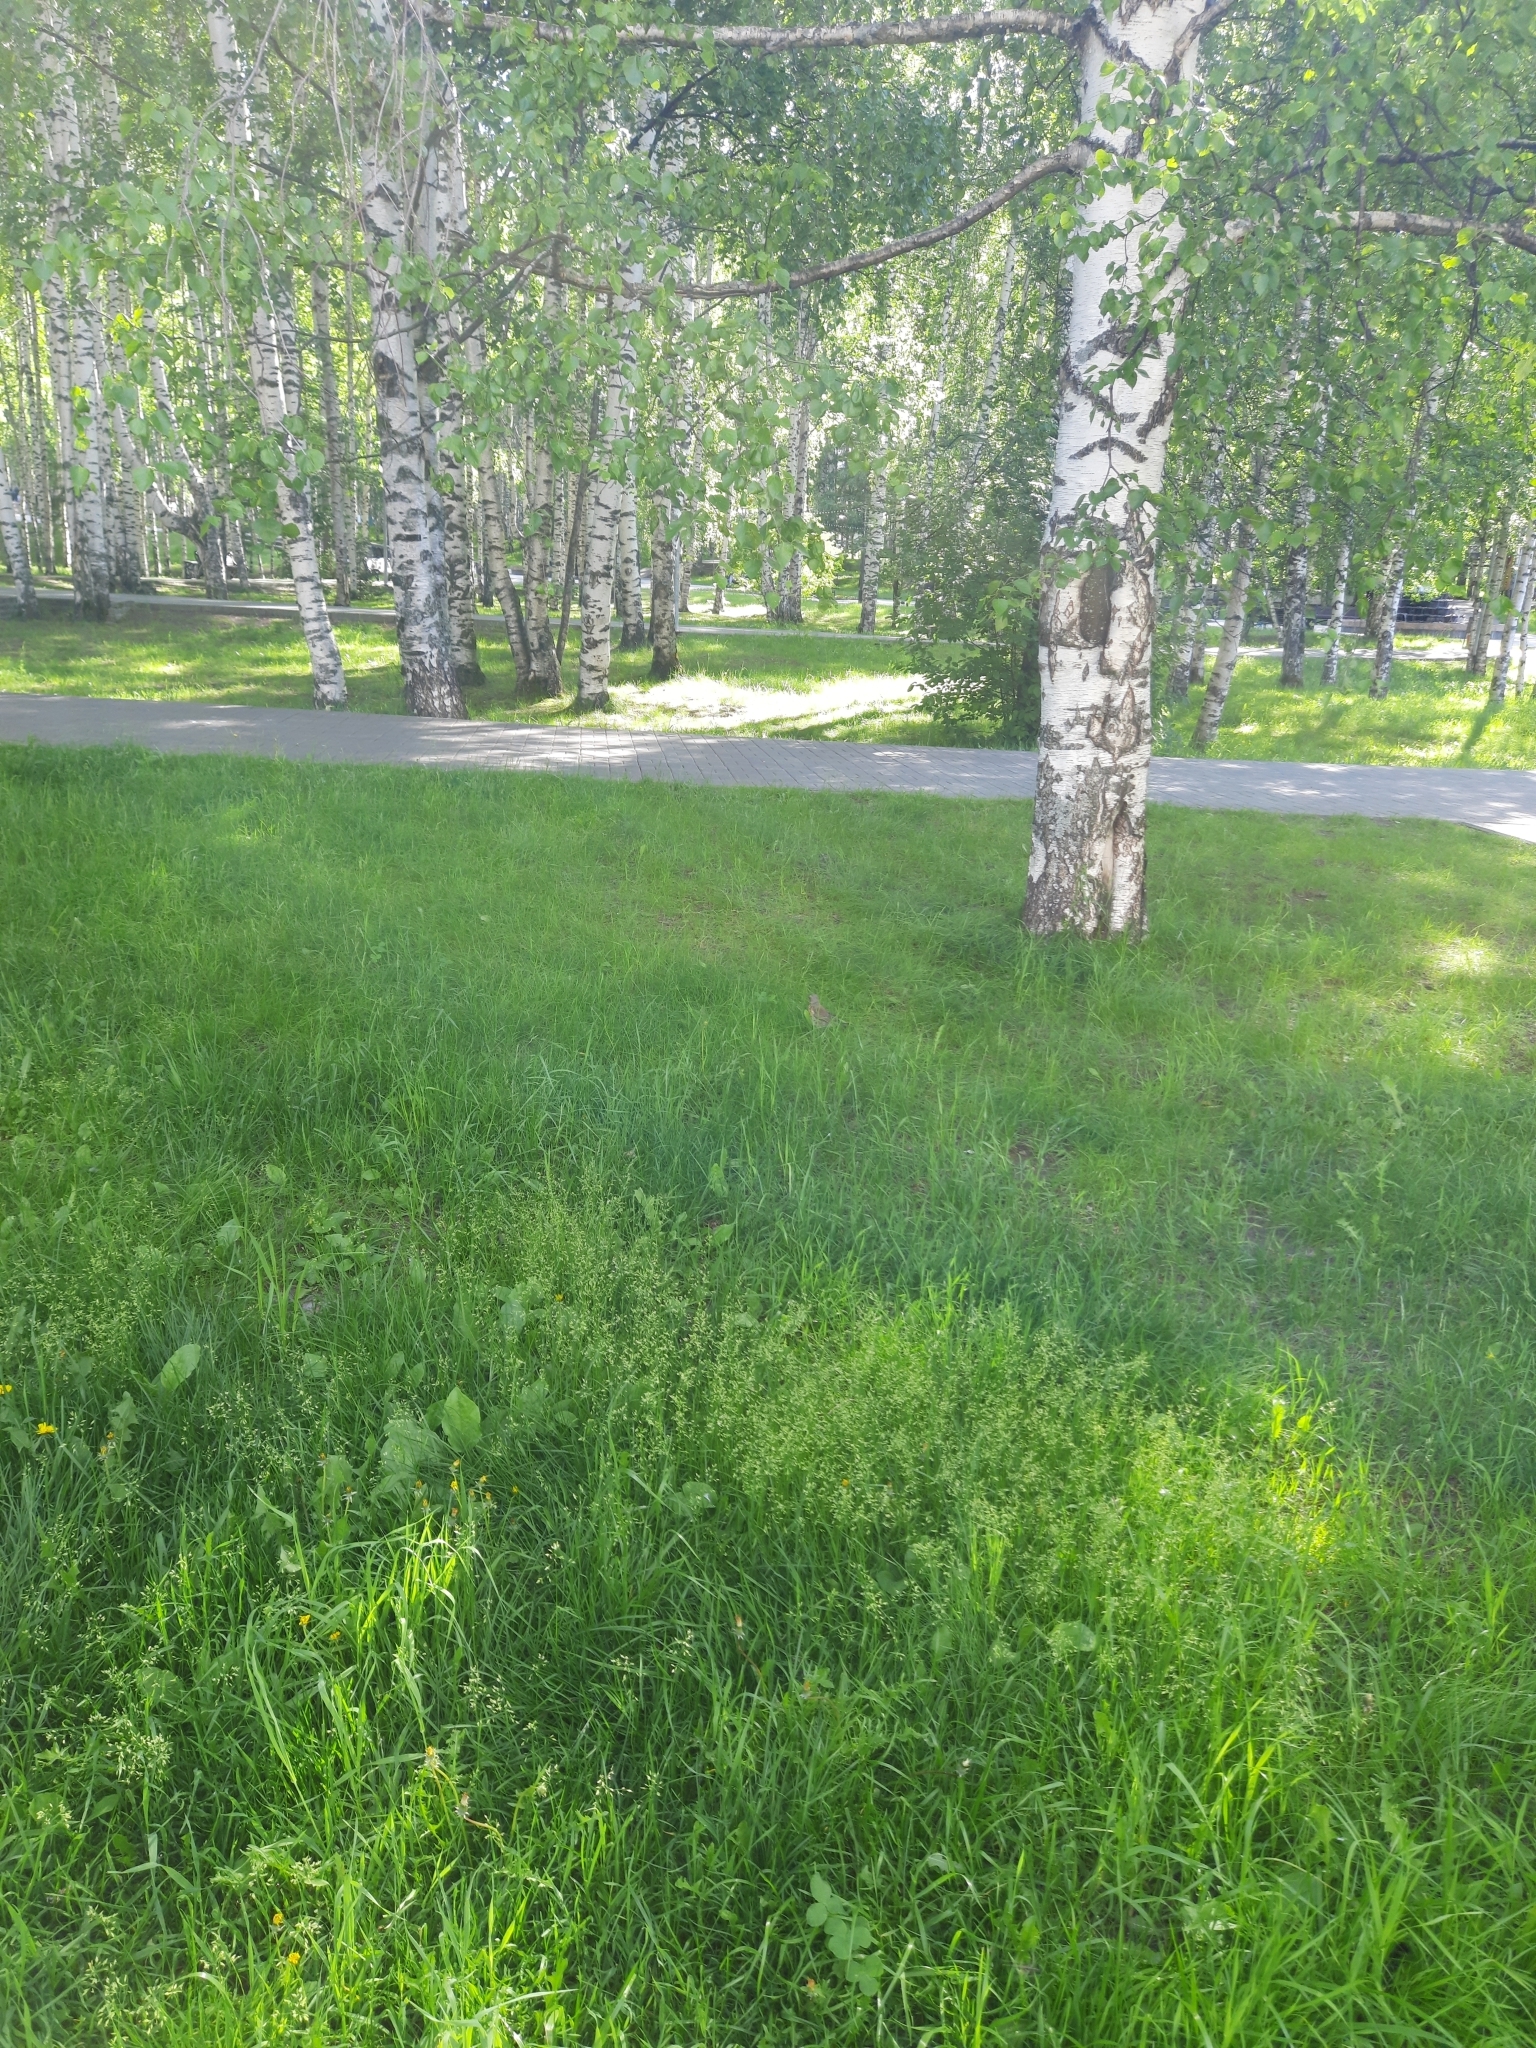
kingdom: Animalia
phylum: Chordata
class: Aves
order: Passeriformes
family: Turdidae
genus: Turdus
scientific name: Turdus pilaris
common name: Fieldfare
